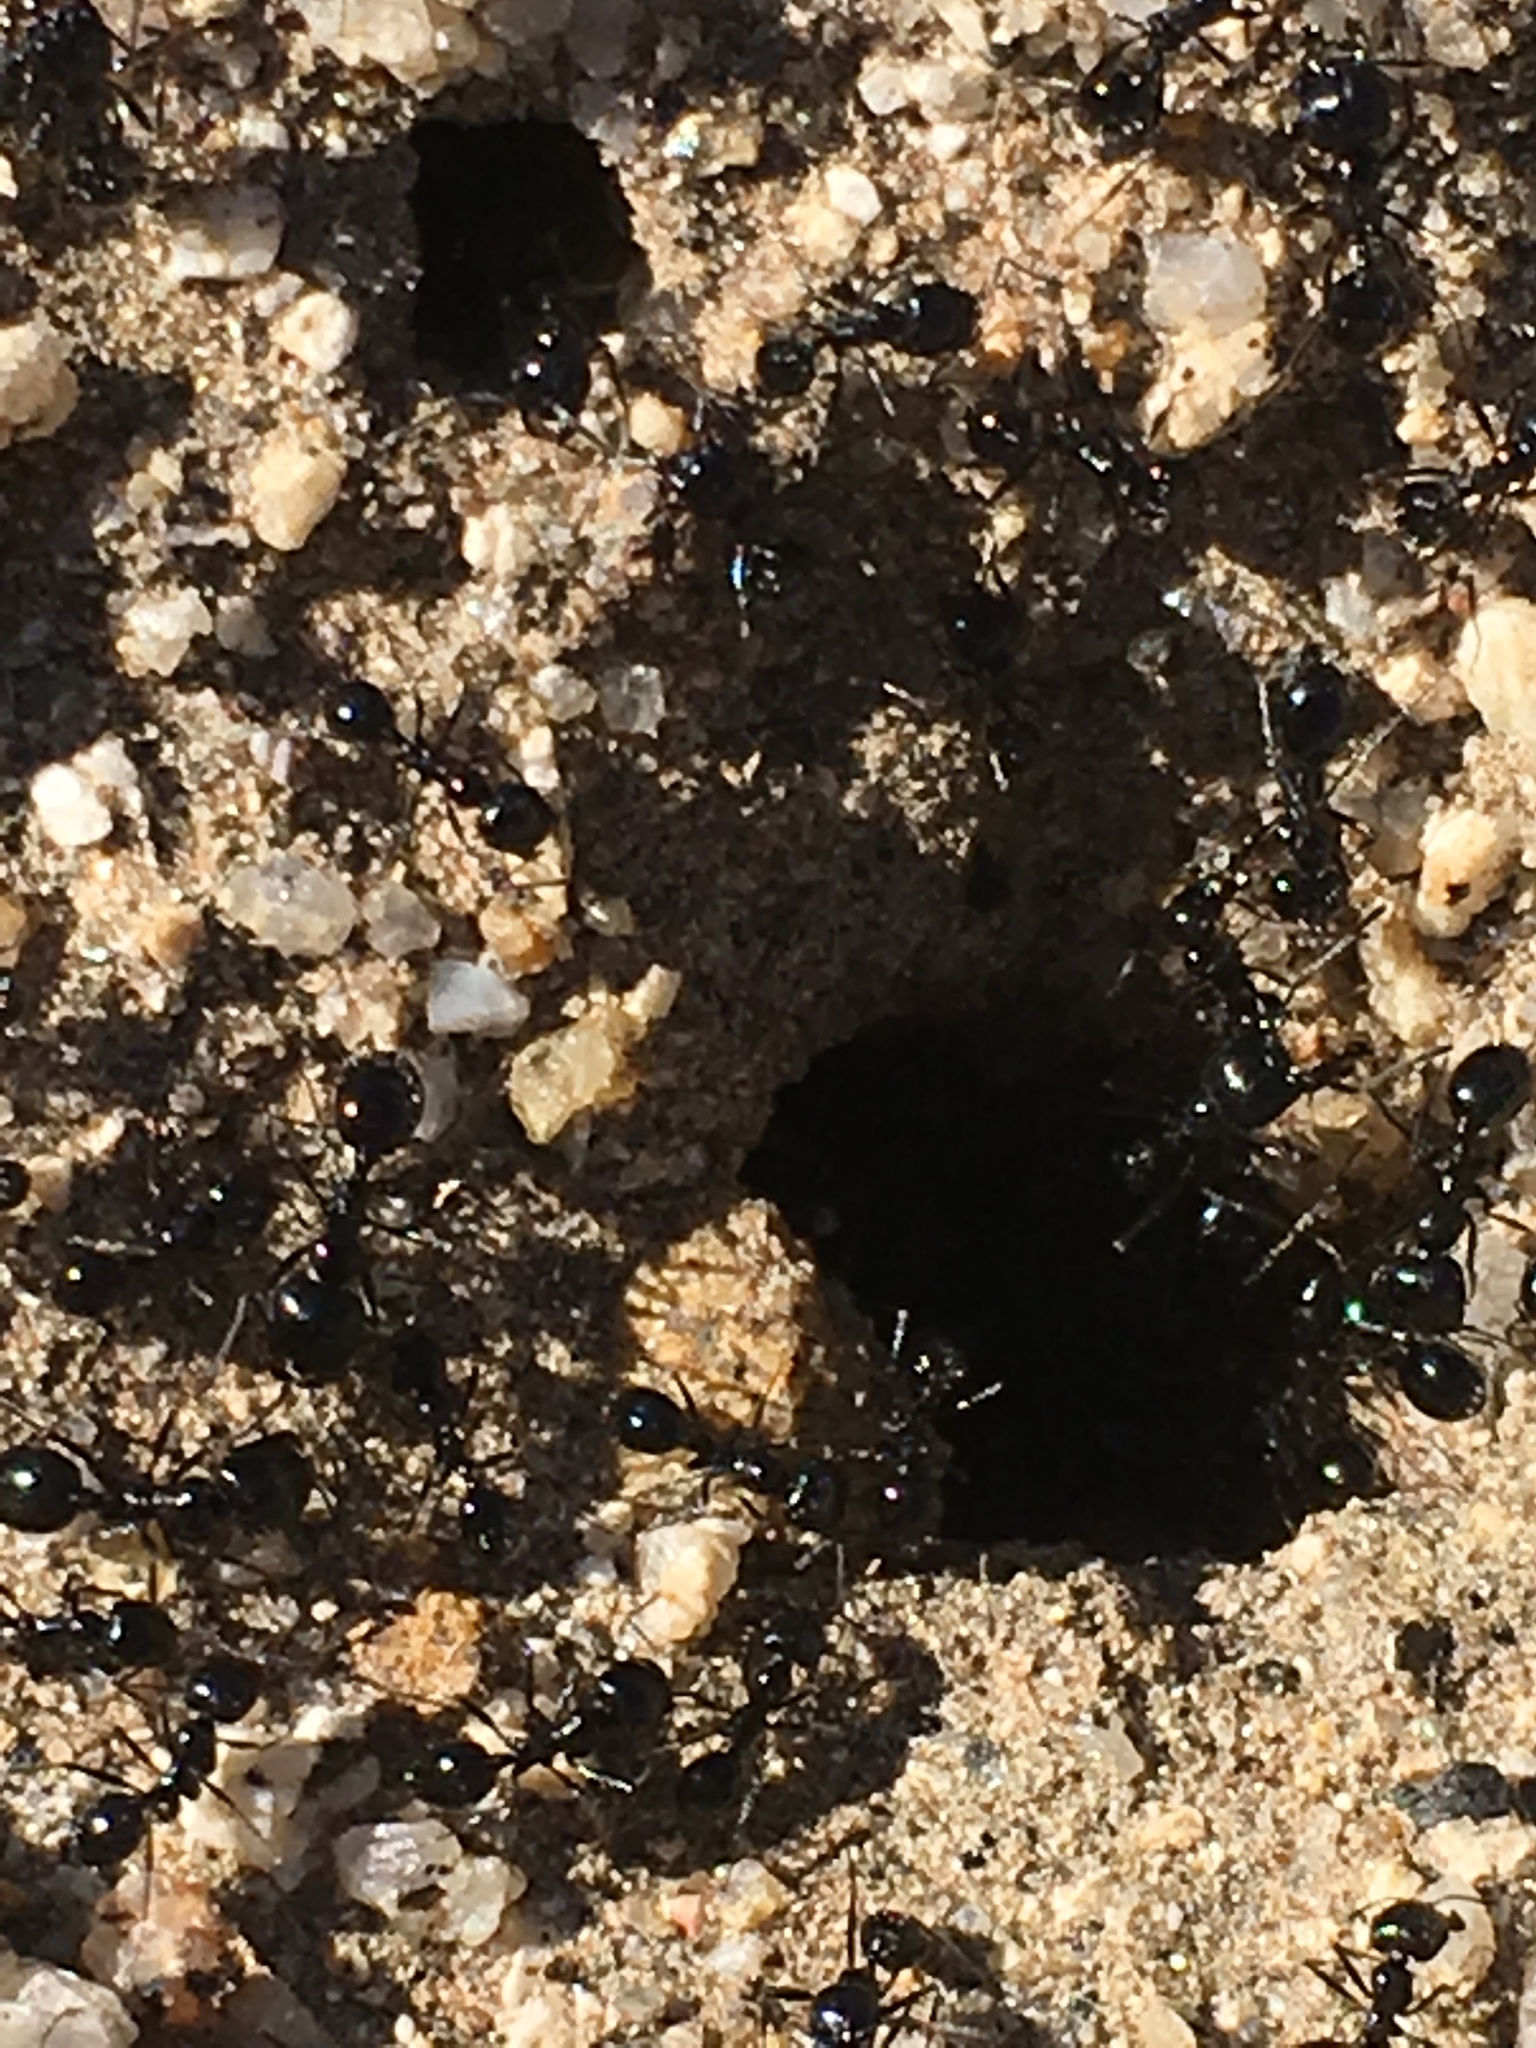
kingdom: Animalia
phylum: Arthropoda
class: Insecta
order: Hymenoptera
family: Formicidae
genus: Messor
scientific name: Messor pergandei
